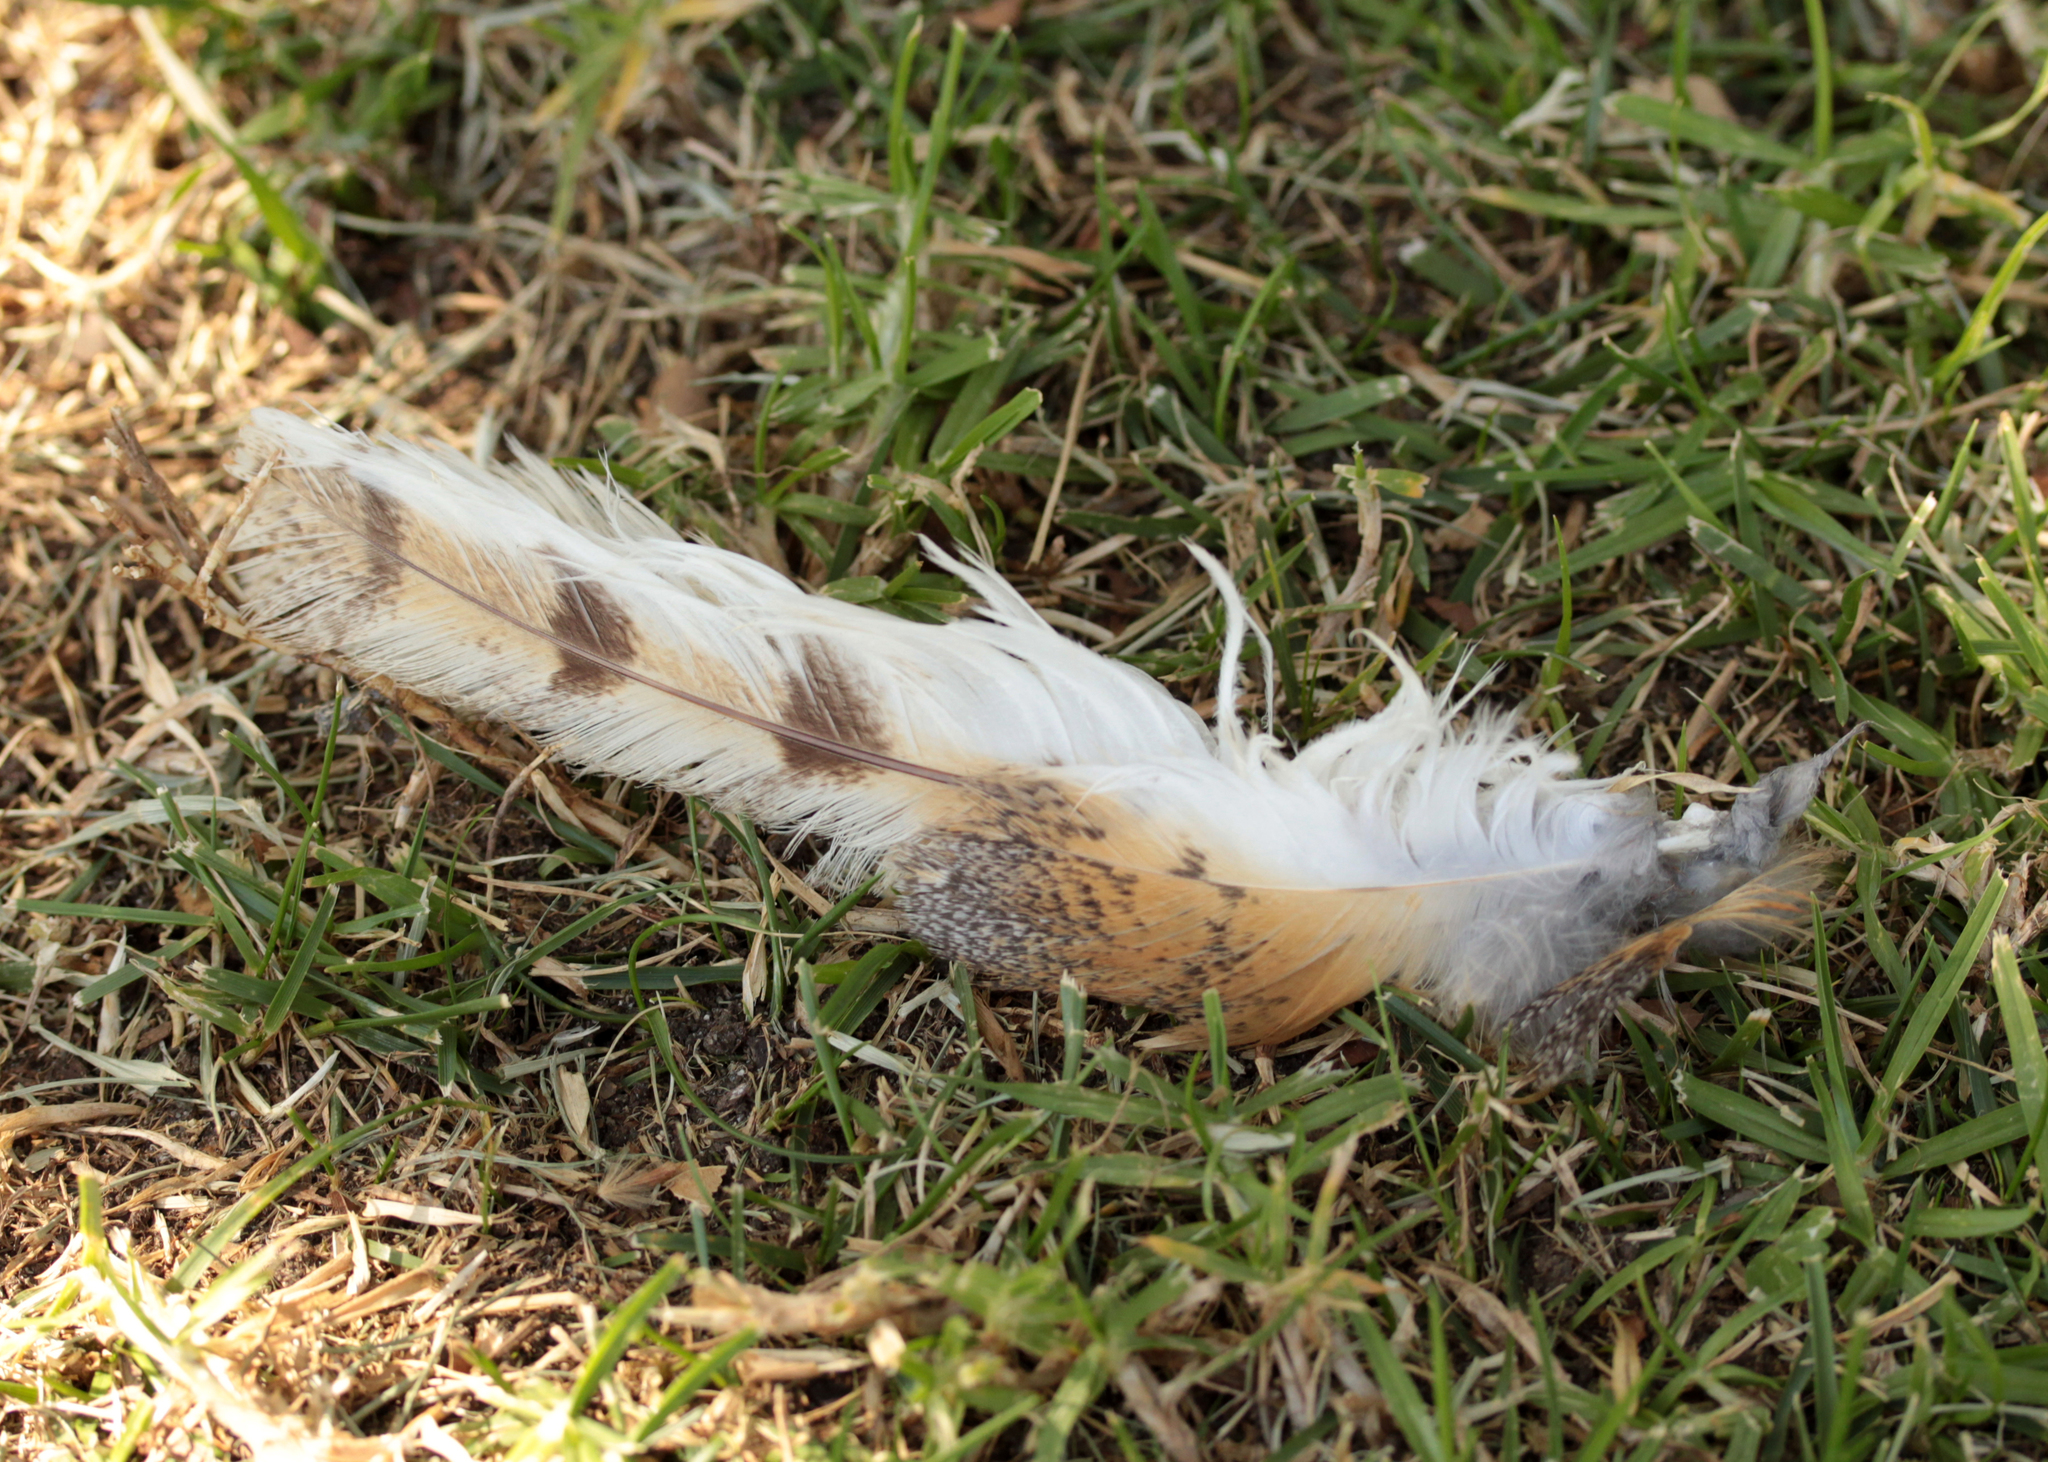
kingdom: Animalia
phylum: Chordata
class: Aves
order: Strigiformes
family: Tytonidae
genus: Tyto
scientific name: Tyto alba
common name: Barn owl
